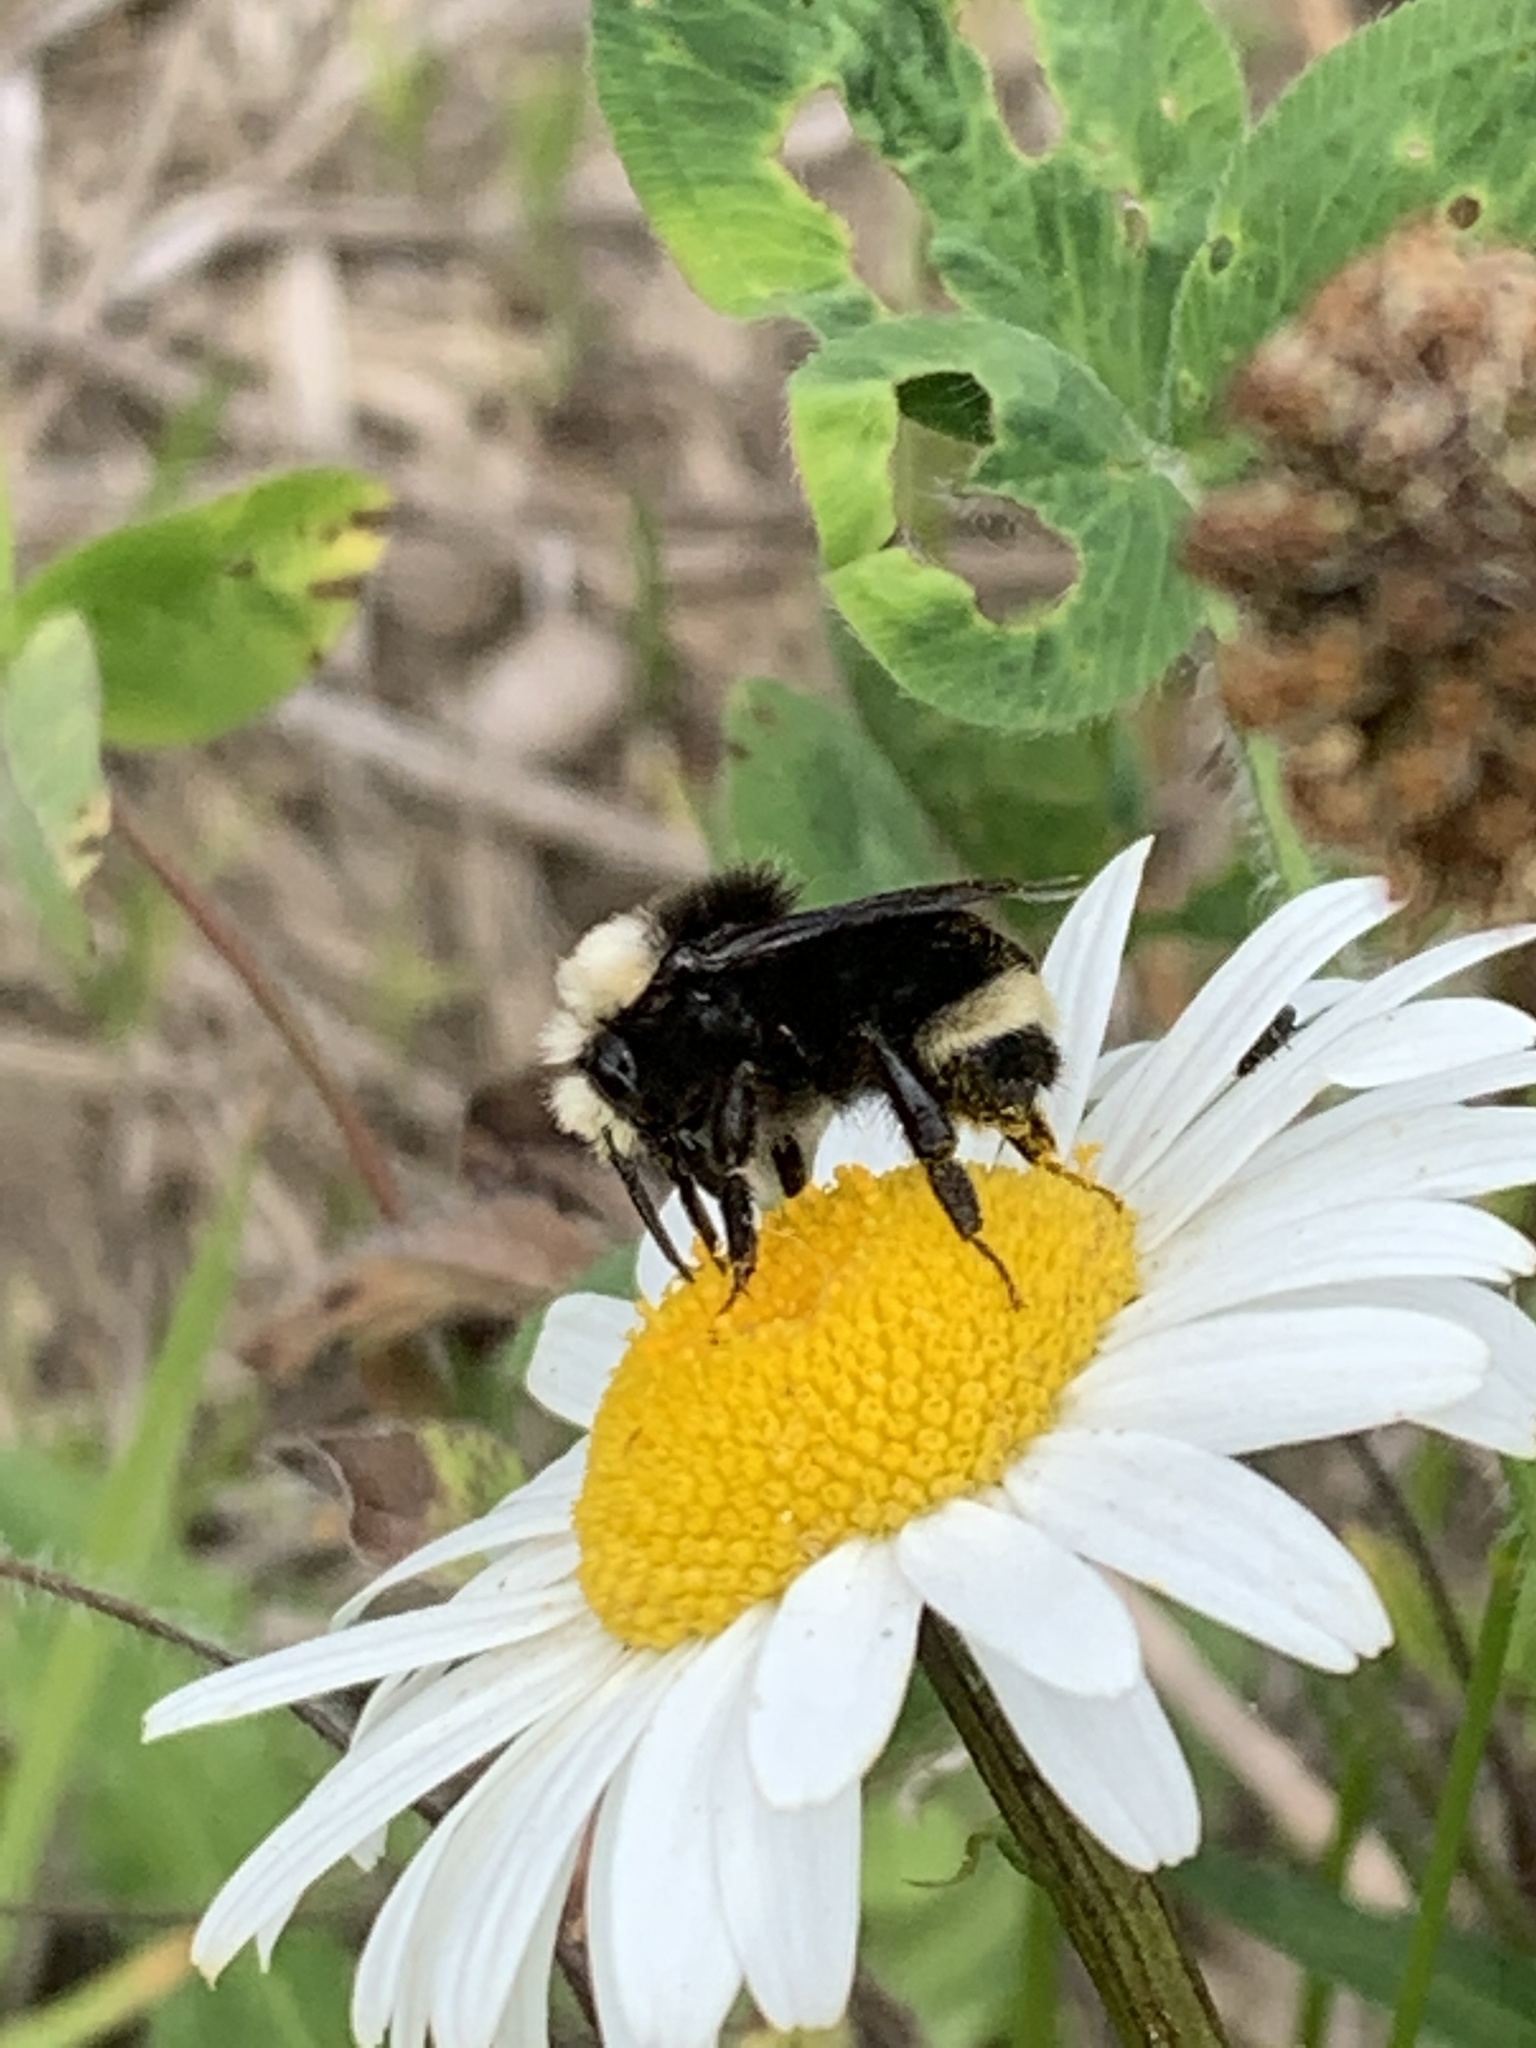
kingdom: Animalia
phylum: Arthropoda
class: Insecta
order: Hymenoptera
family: Apidae
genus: Bombus
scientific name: Bombus vosnesenskii
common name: Vosnesensky bumble bee
